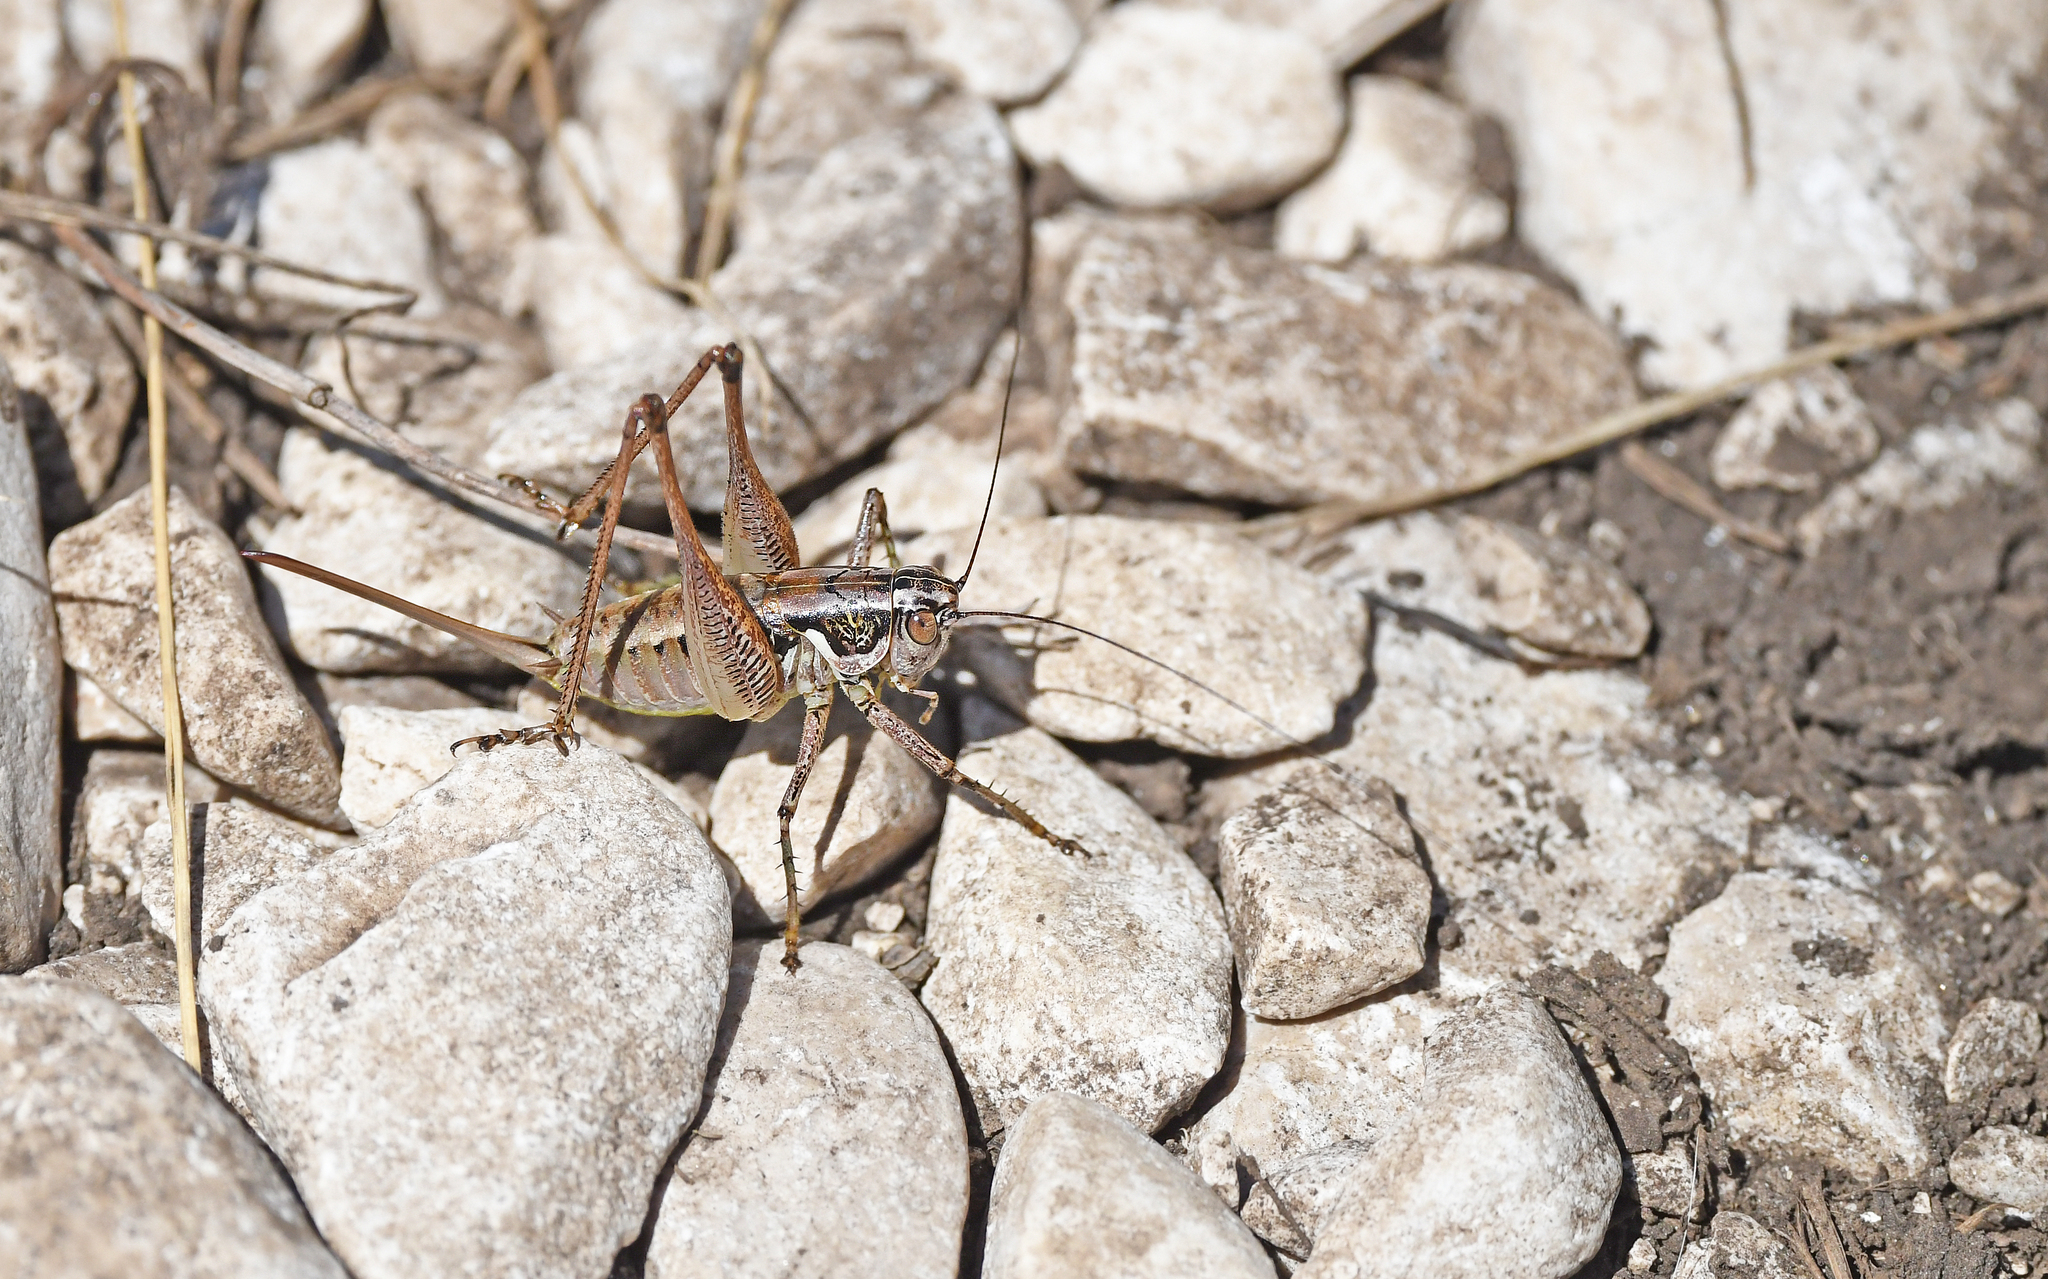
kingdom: Animalia
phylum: Arthropoda
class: Insecta
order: Orthoptera
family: Tettigoniidae
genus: Pachytrachis
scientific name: Pachytrachis striolatus
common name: Striated bush-cricket
